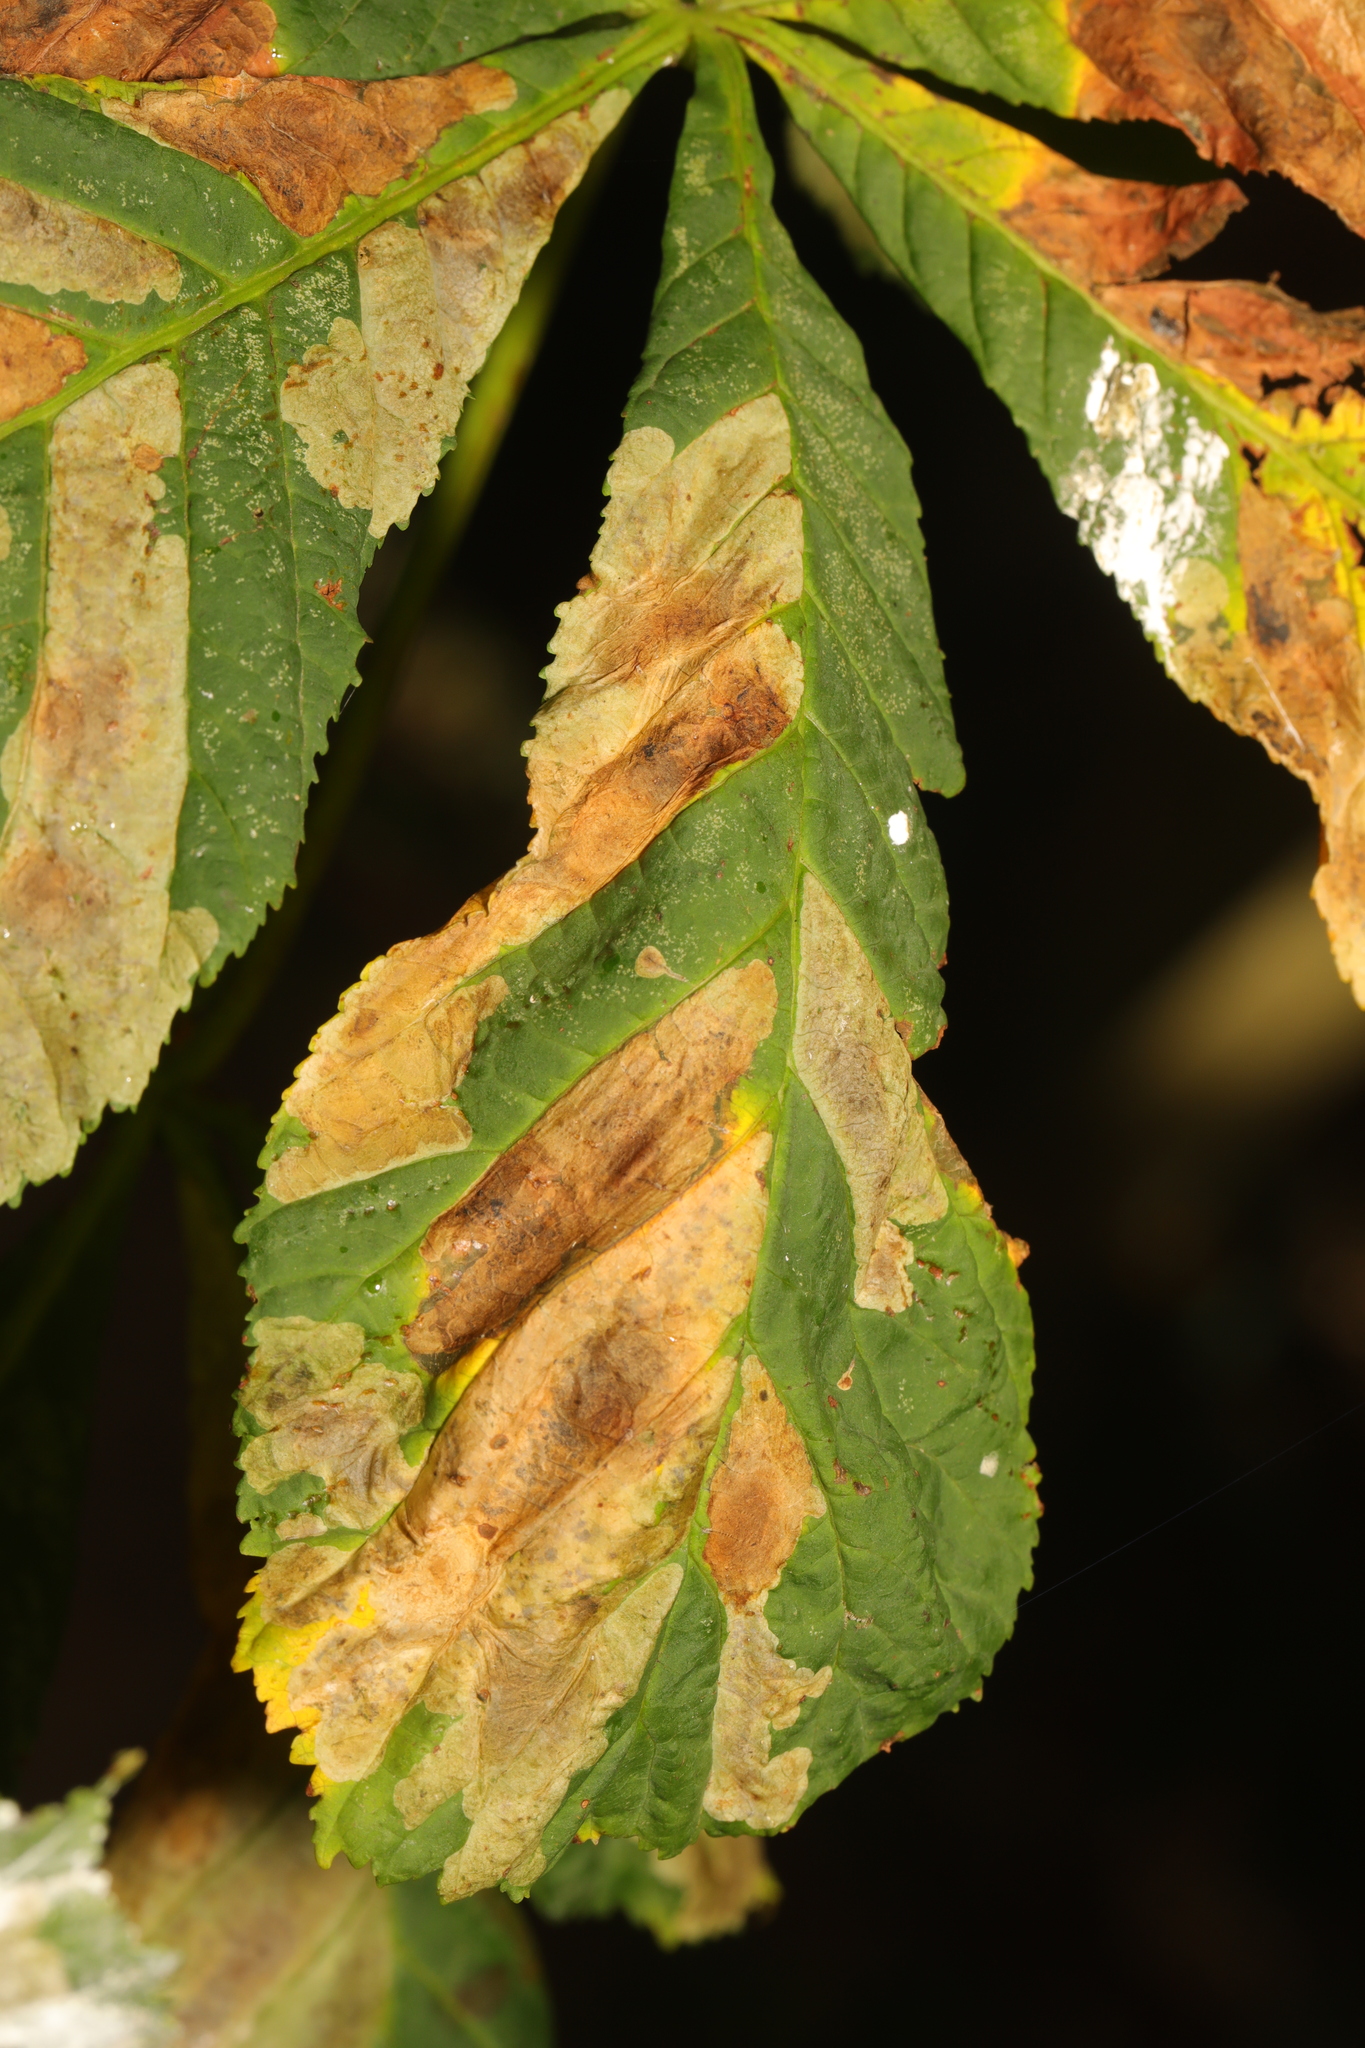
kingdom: Animalia
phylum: Arthropoda
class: Insecta
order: Lepidoptera
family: Gracillariidae
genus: Cameraria
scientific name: Cameraria ohridella
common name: Horse-chestnut leaf-miner
